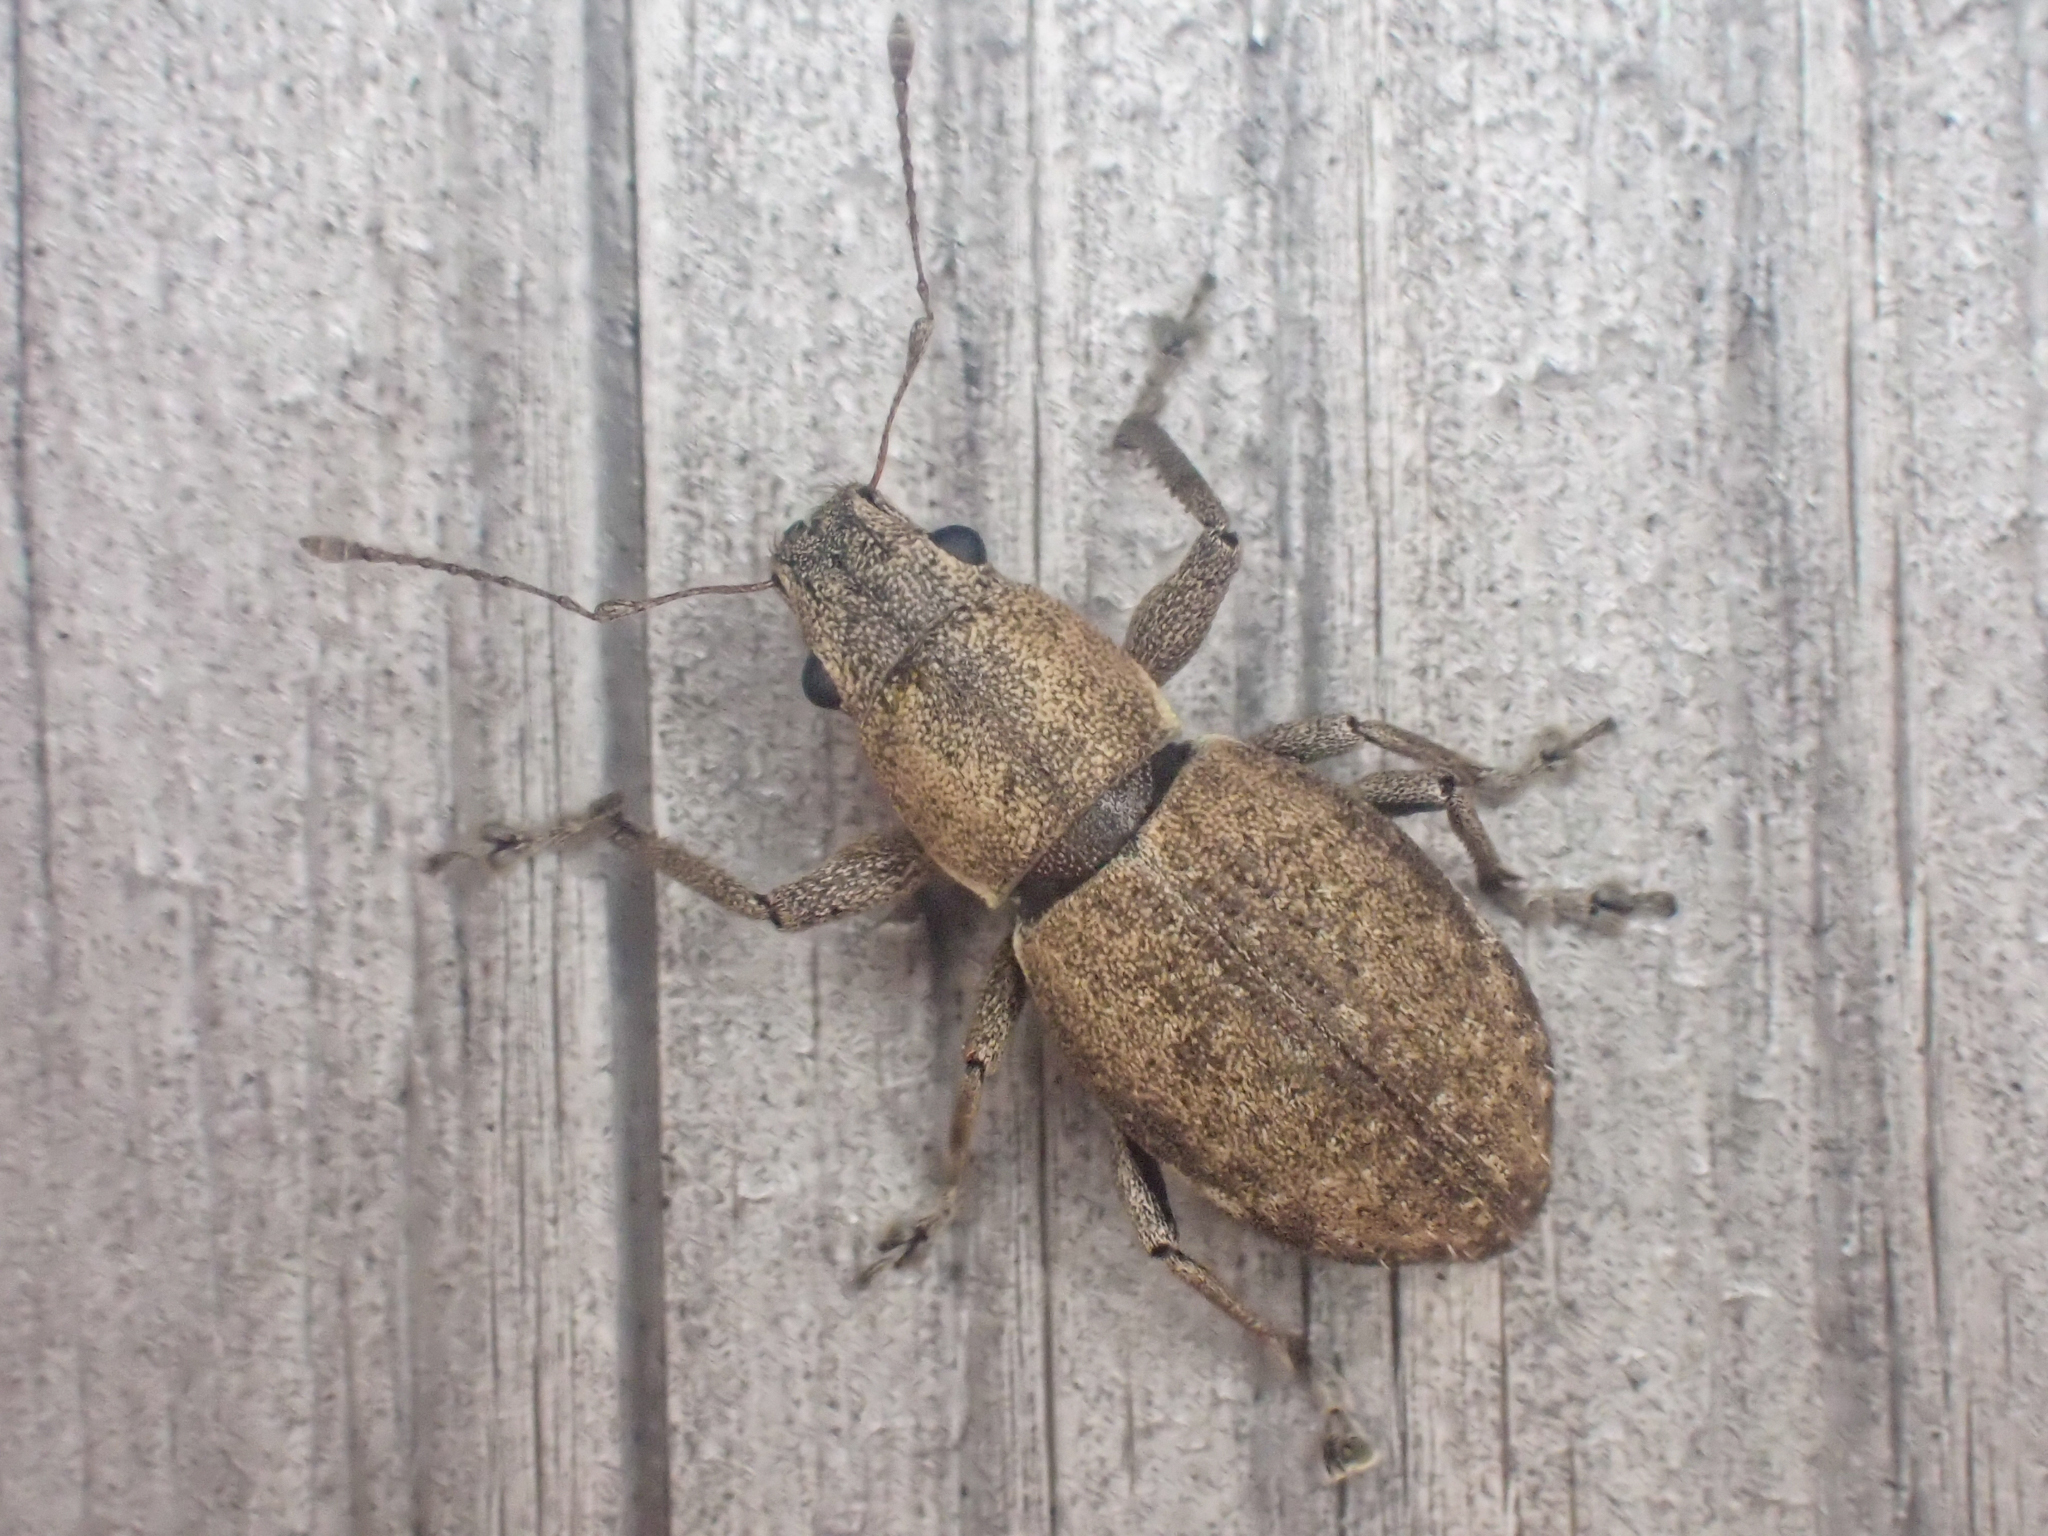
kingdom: Animalia
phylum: Arthropoda
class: Insecta
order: Coleoptera
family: Curculionidae
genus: Naupactus
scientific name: Naupactus cervinus
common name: Fuller rose beetle
